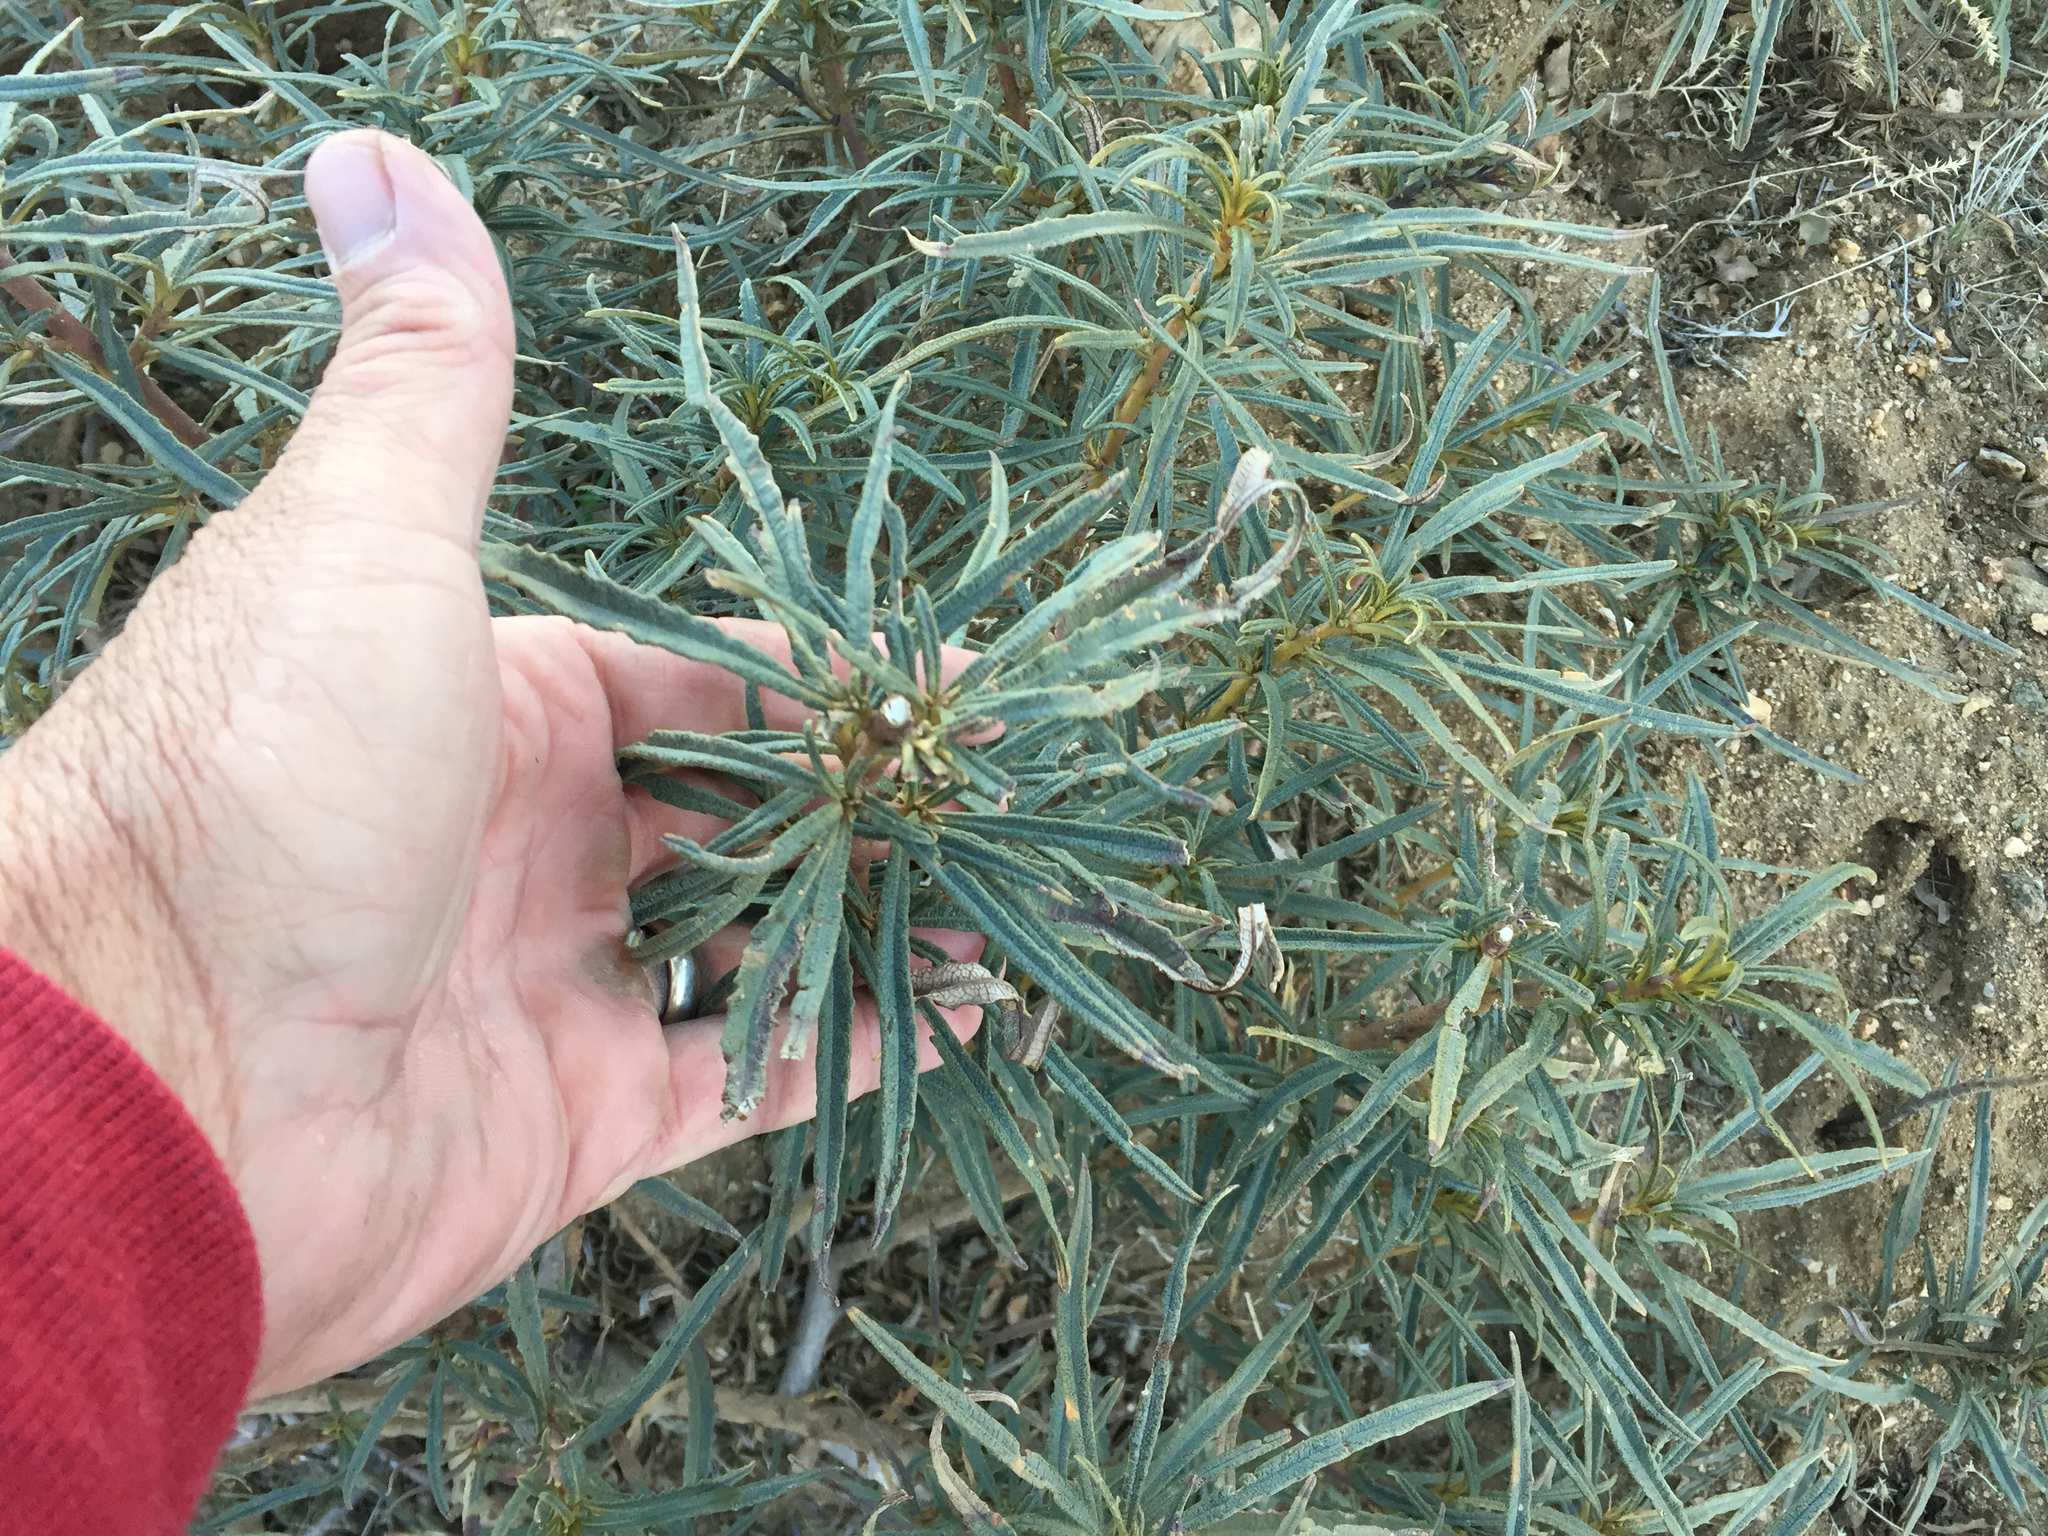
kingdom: Plantae
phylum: Tracheophyta
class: Magnoliopsida
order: Boraginales
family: Namaceae
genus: Eriodictyon
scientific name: Eriodictyon angustifolium
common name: Narrow-leaf yerba santa
